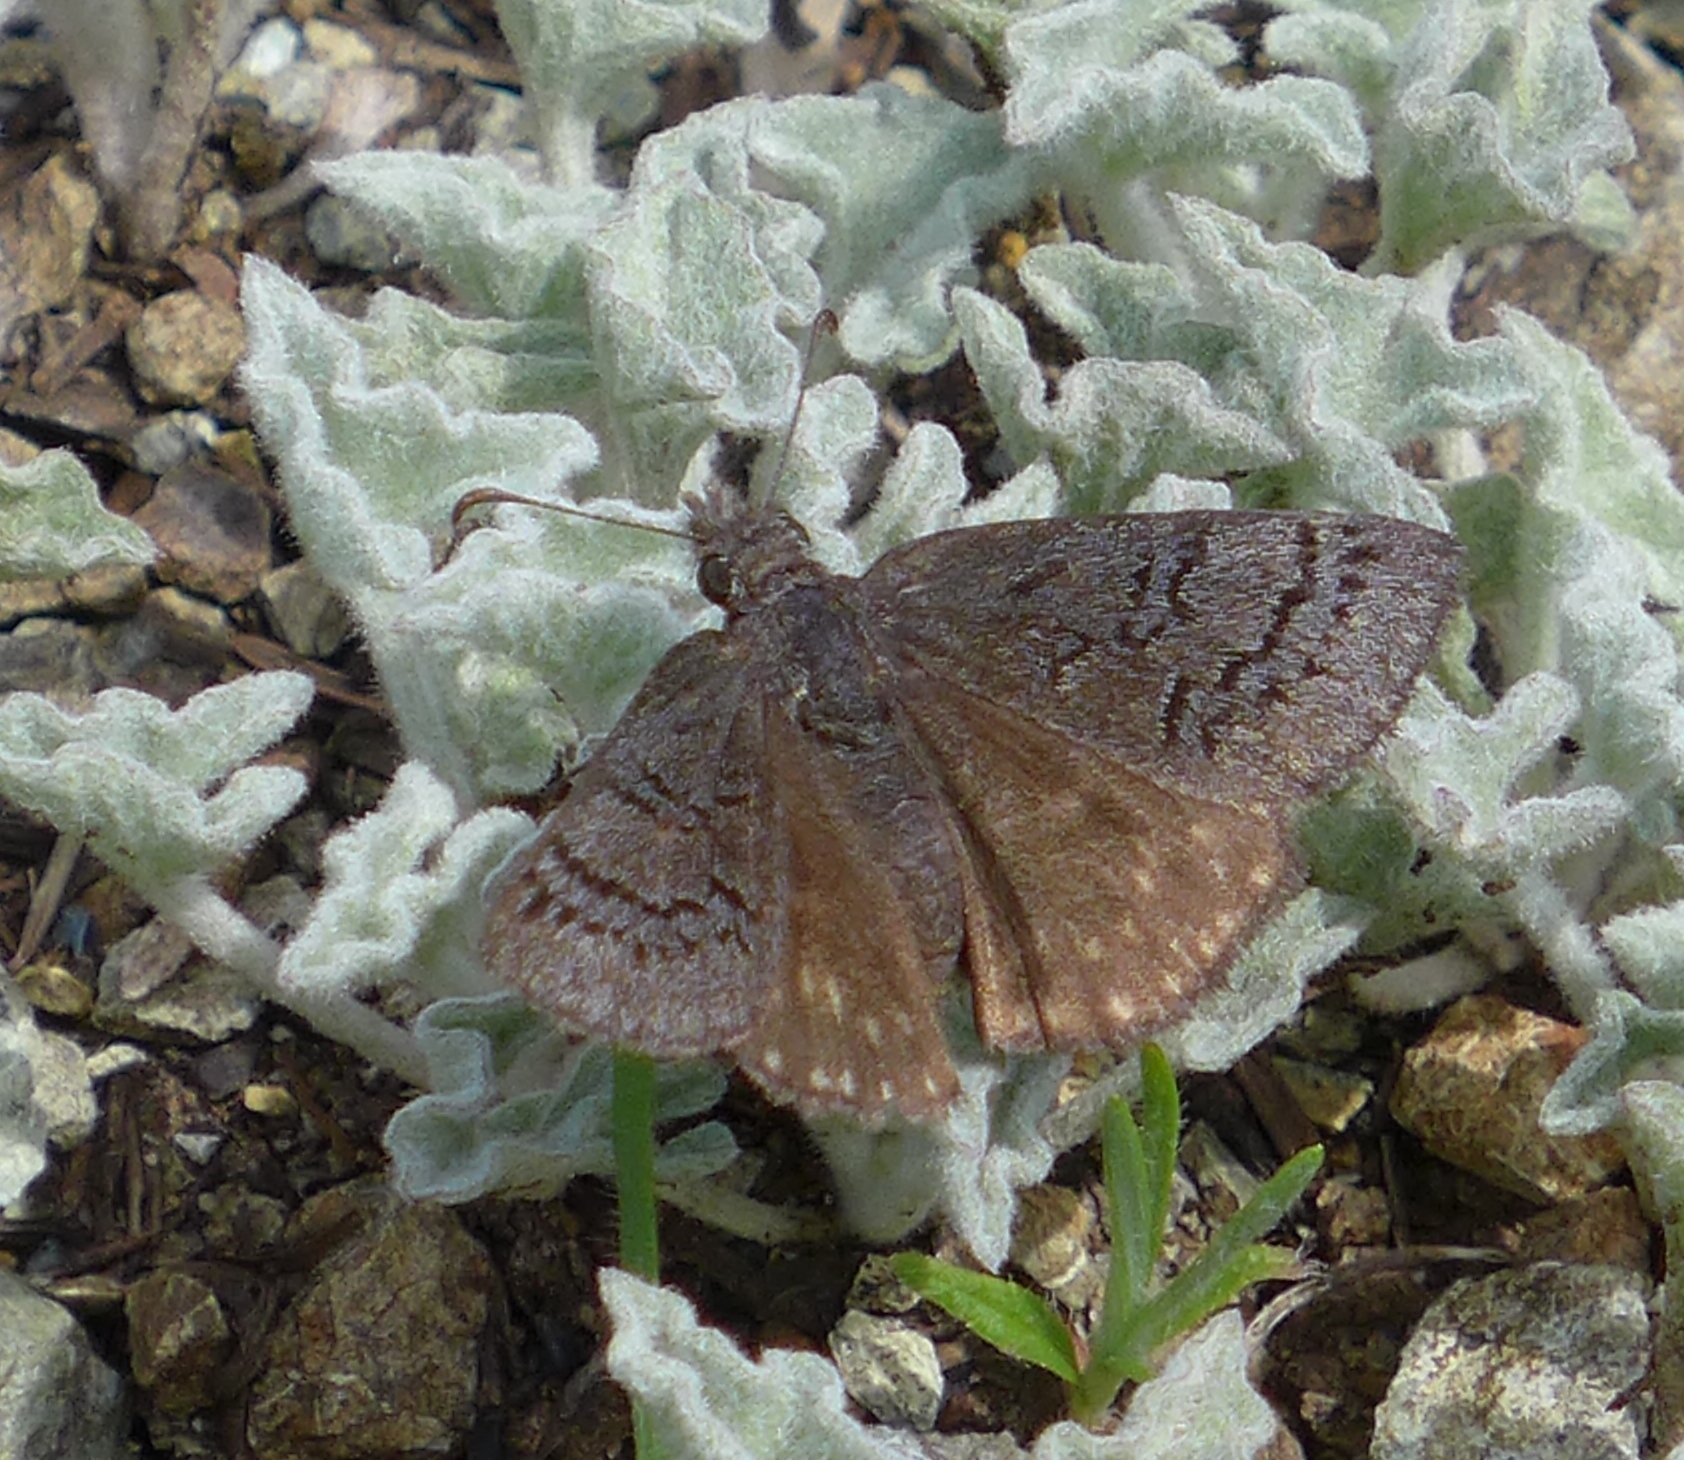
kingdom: Animalia
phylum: Arthropoda
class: Insecta
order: Lepidoptera
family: Hesperiidae
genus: Erynnis
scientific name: Erynnis brizo
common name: Sleepy duskywing
